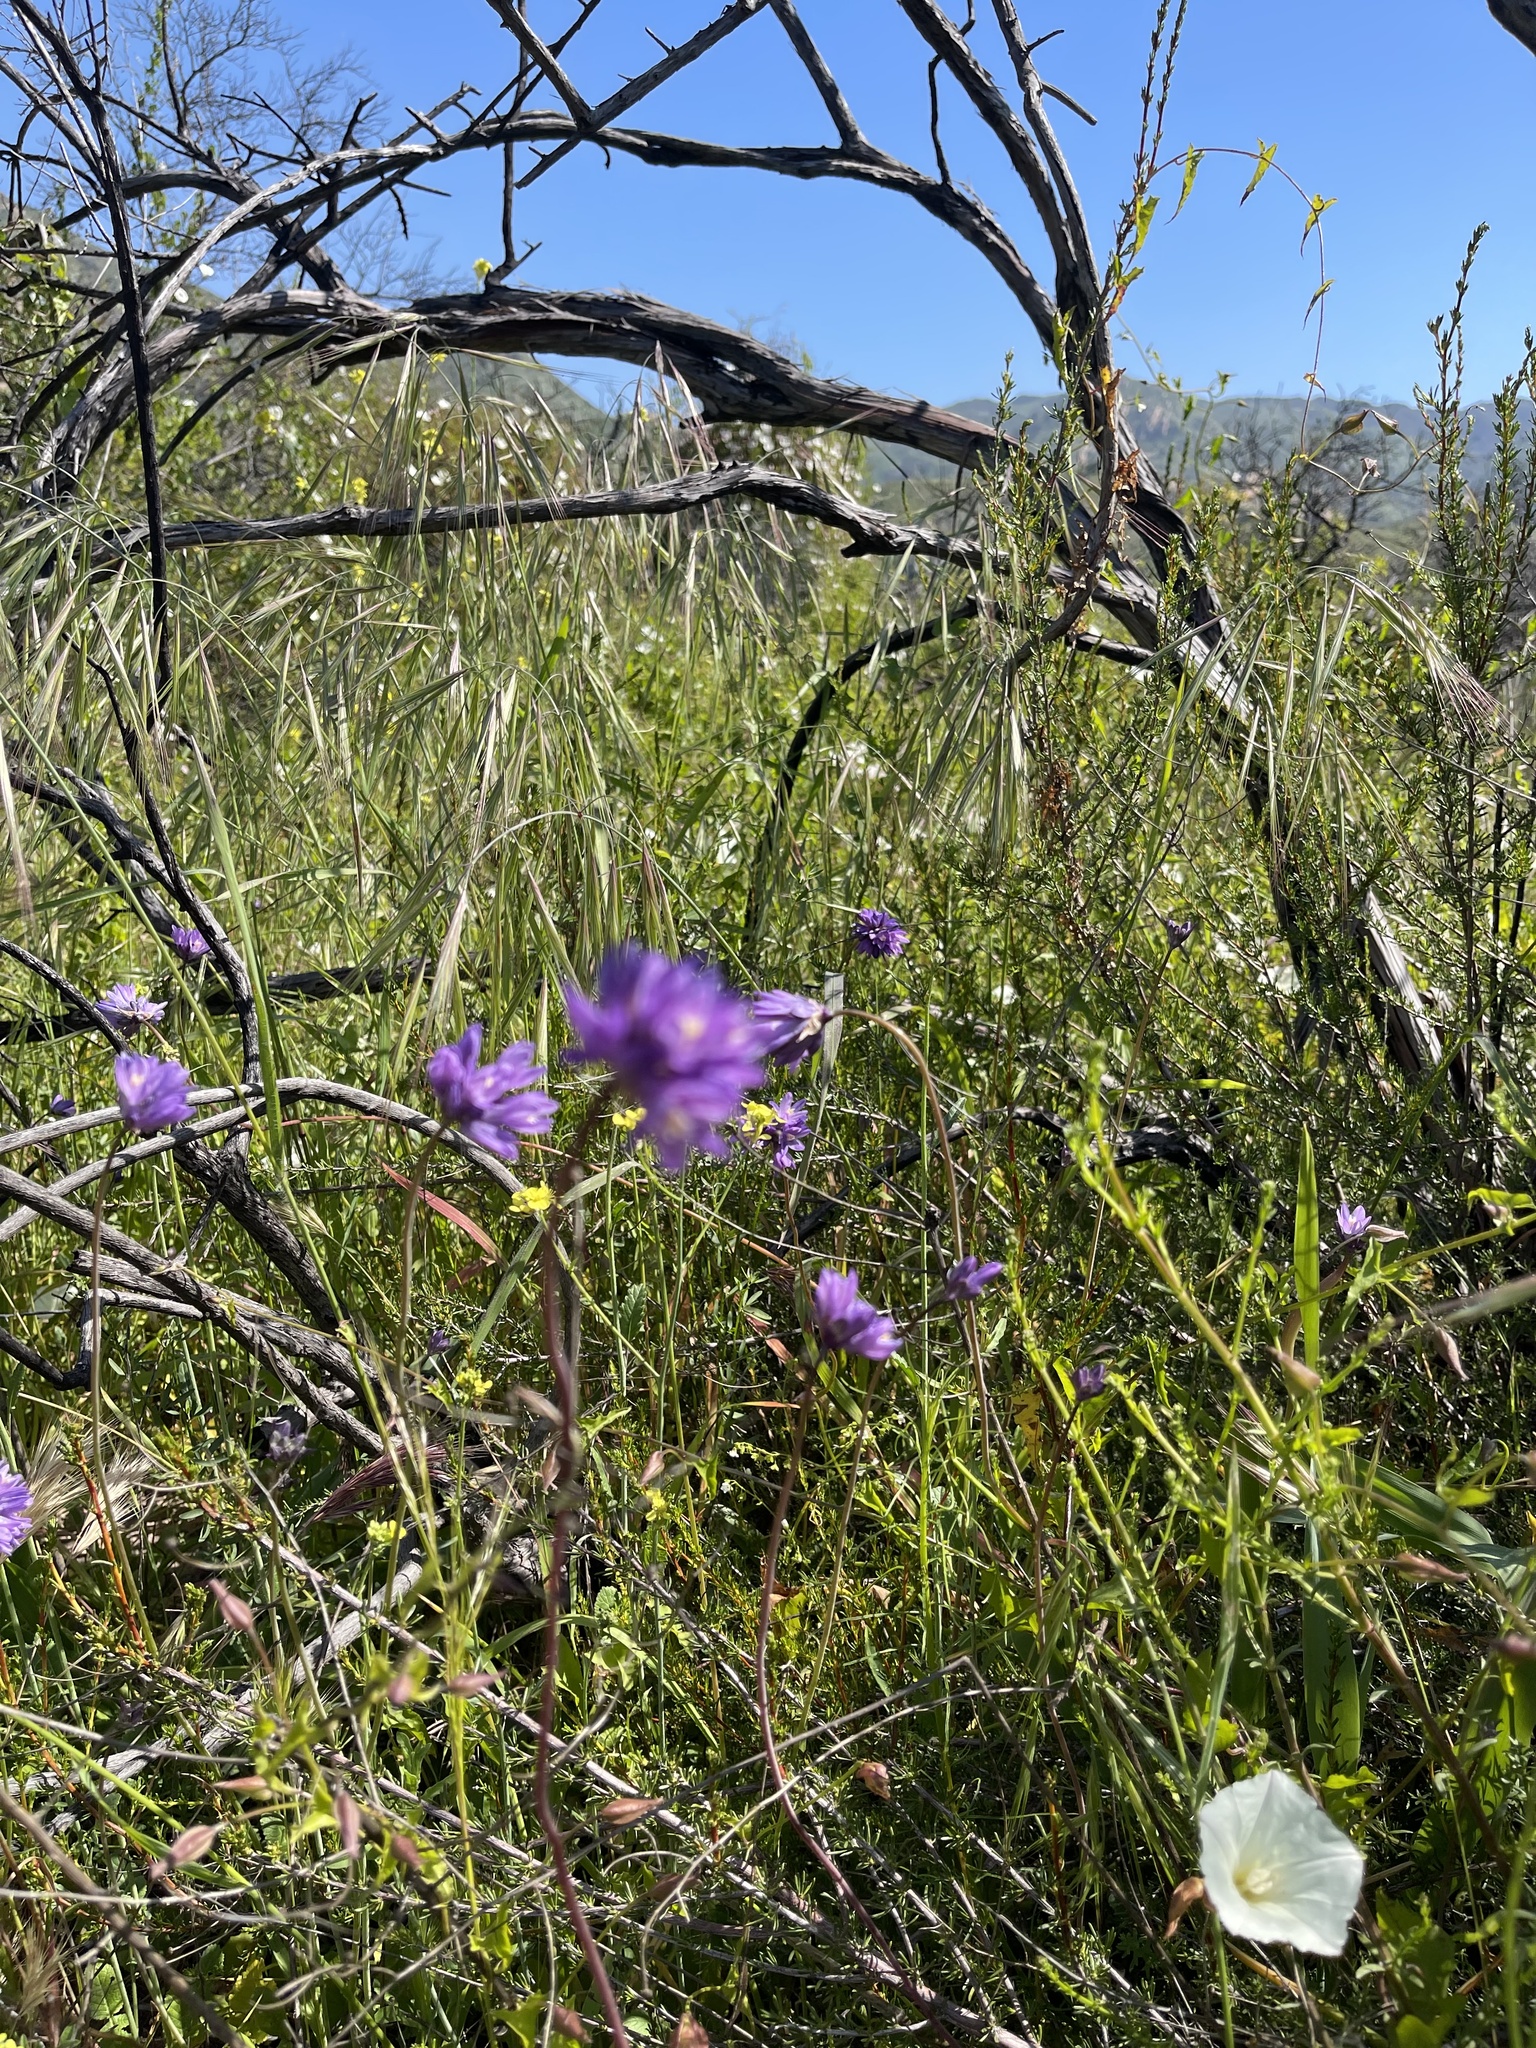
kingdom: Plantae
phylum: Tracheophyta
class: Liliopsida
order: Asparagales
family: Asparagaceae
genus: Dipterostemon
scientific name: Dipterostemon capitatus
